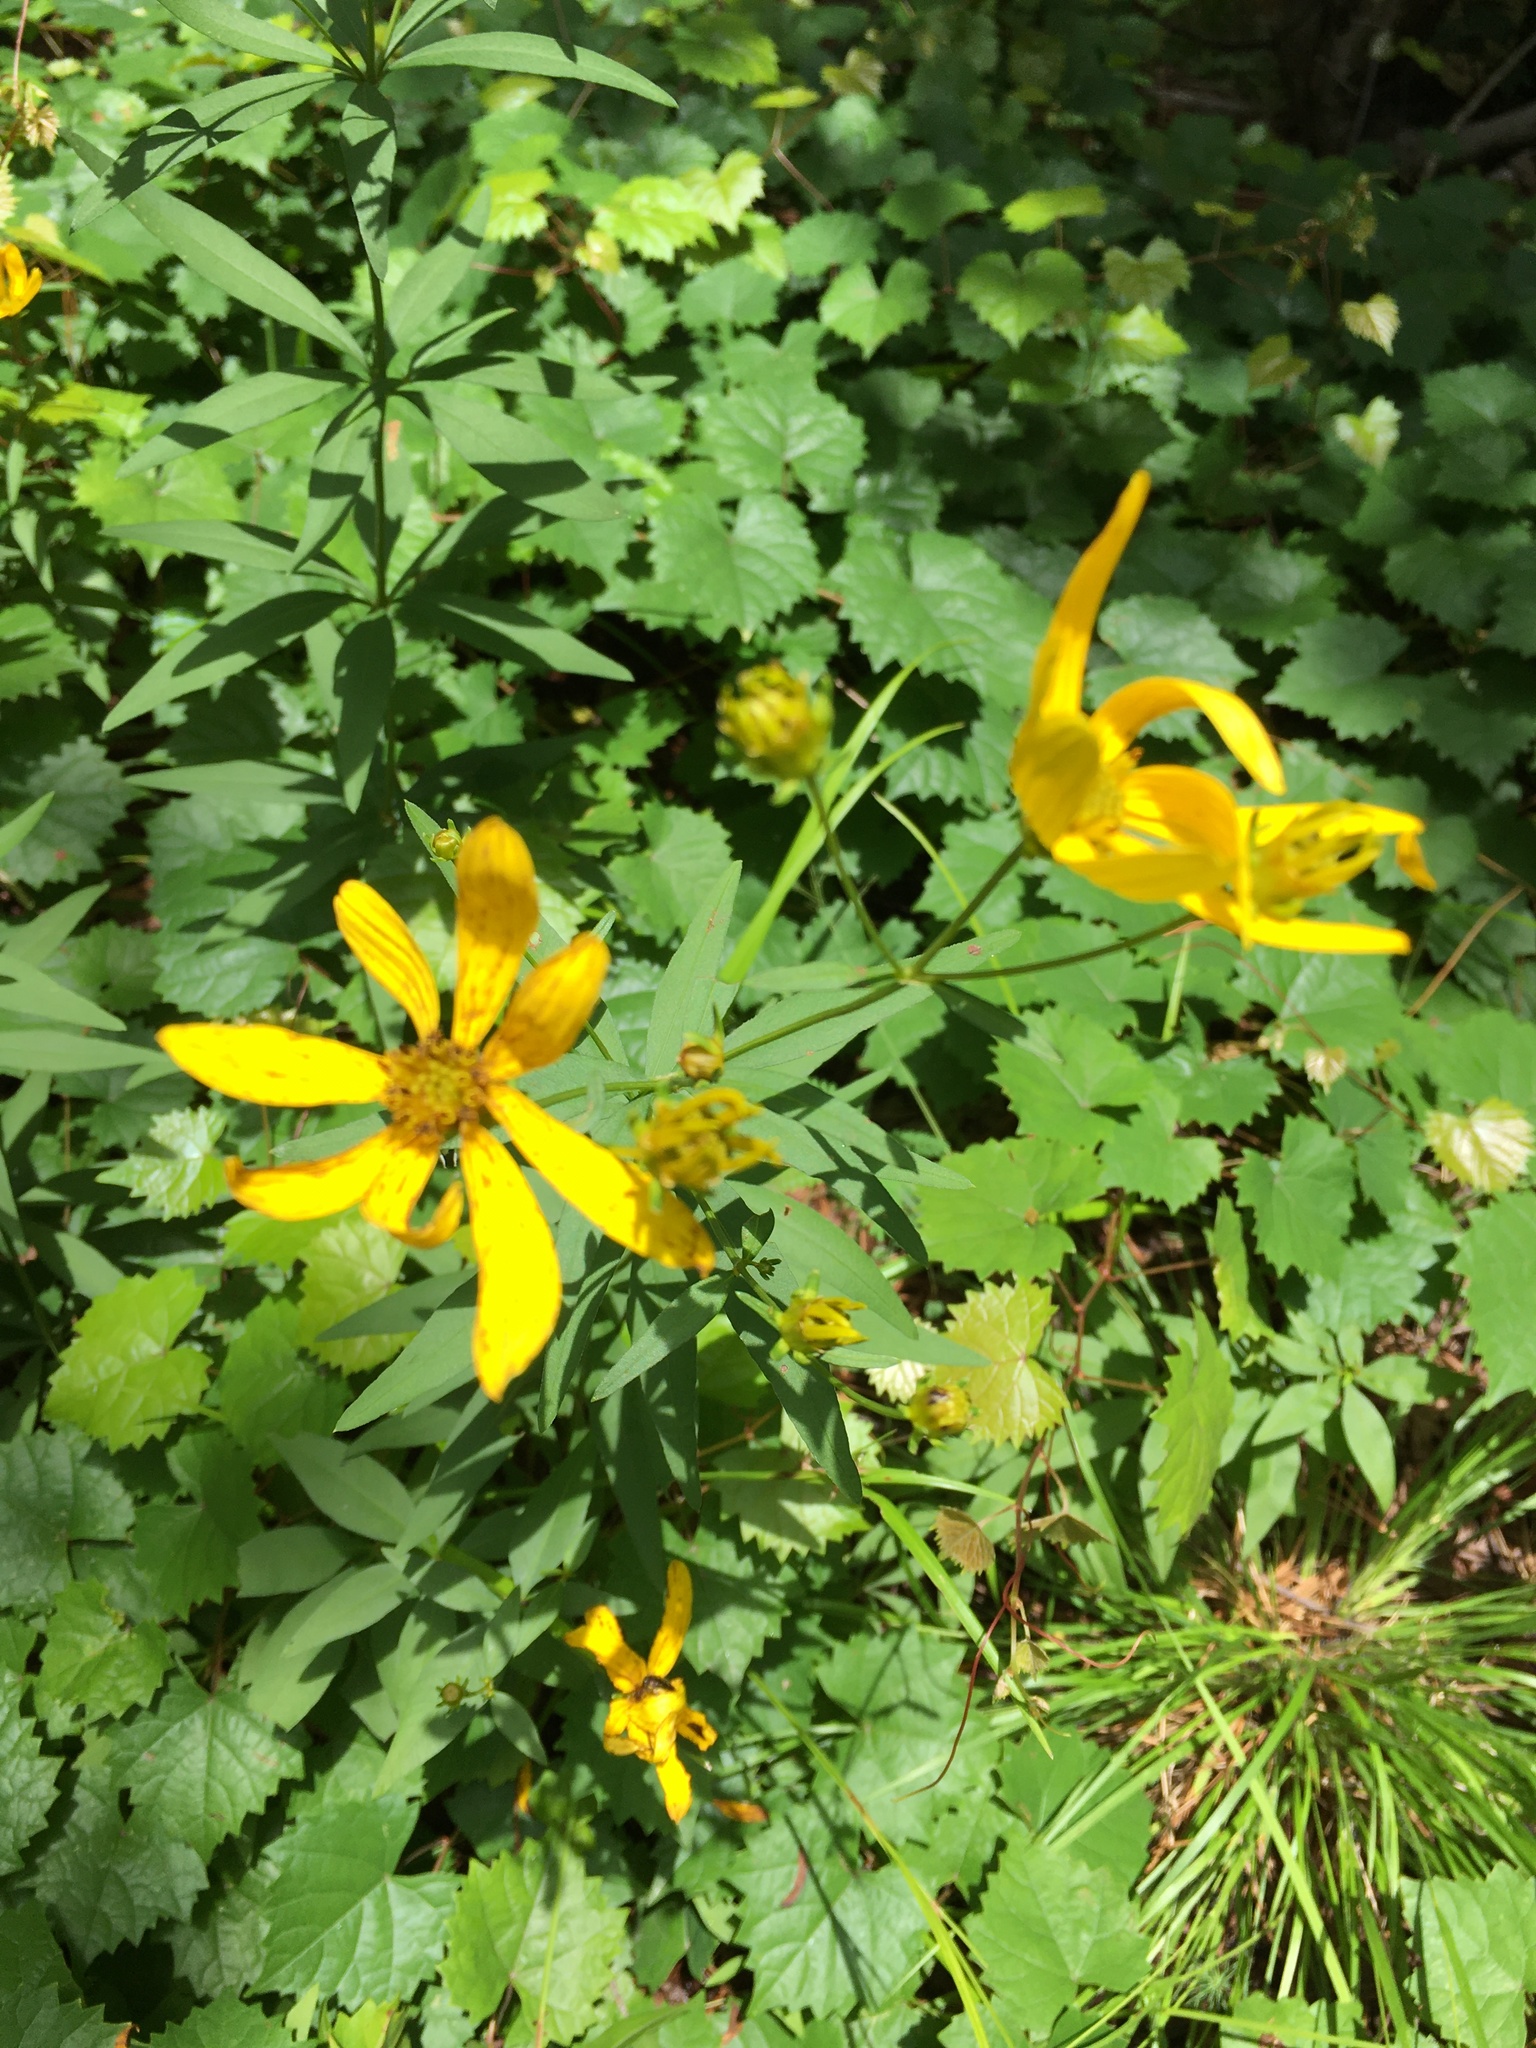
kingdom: Plantae
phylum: Tracheophyta
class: Magnoliopsida
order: Asterales
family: Asteraceae
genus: Coreopsis
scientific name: Coreopsis major
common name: Forest tickseed
